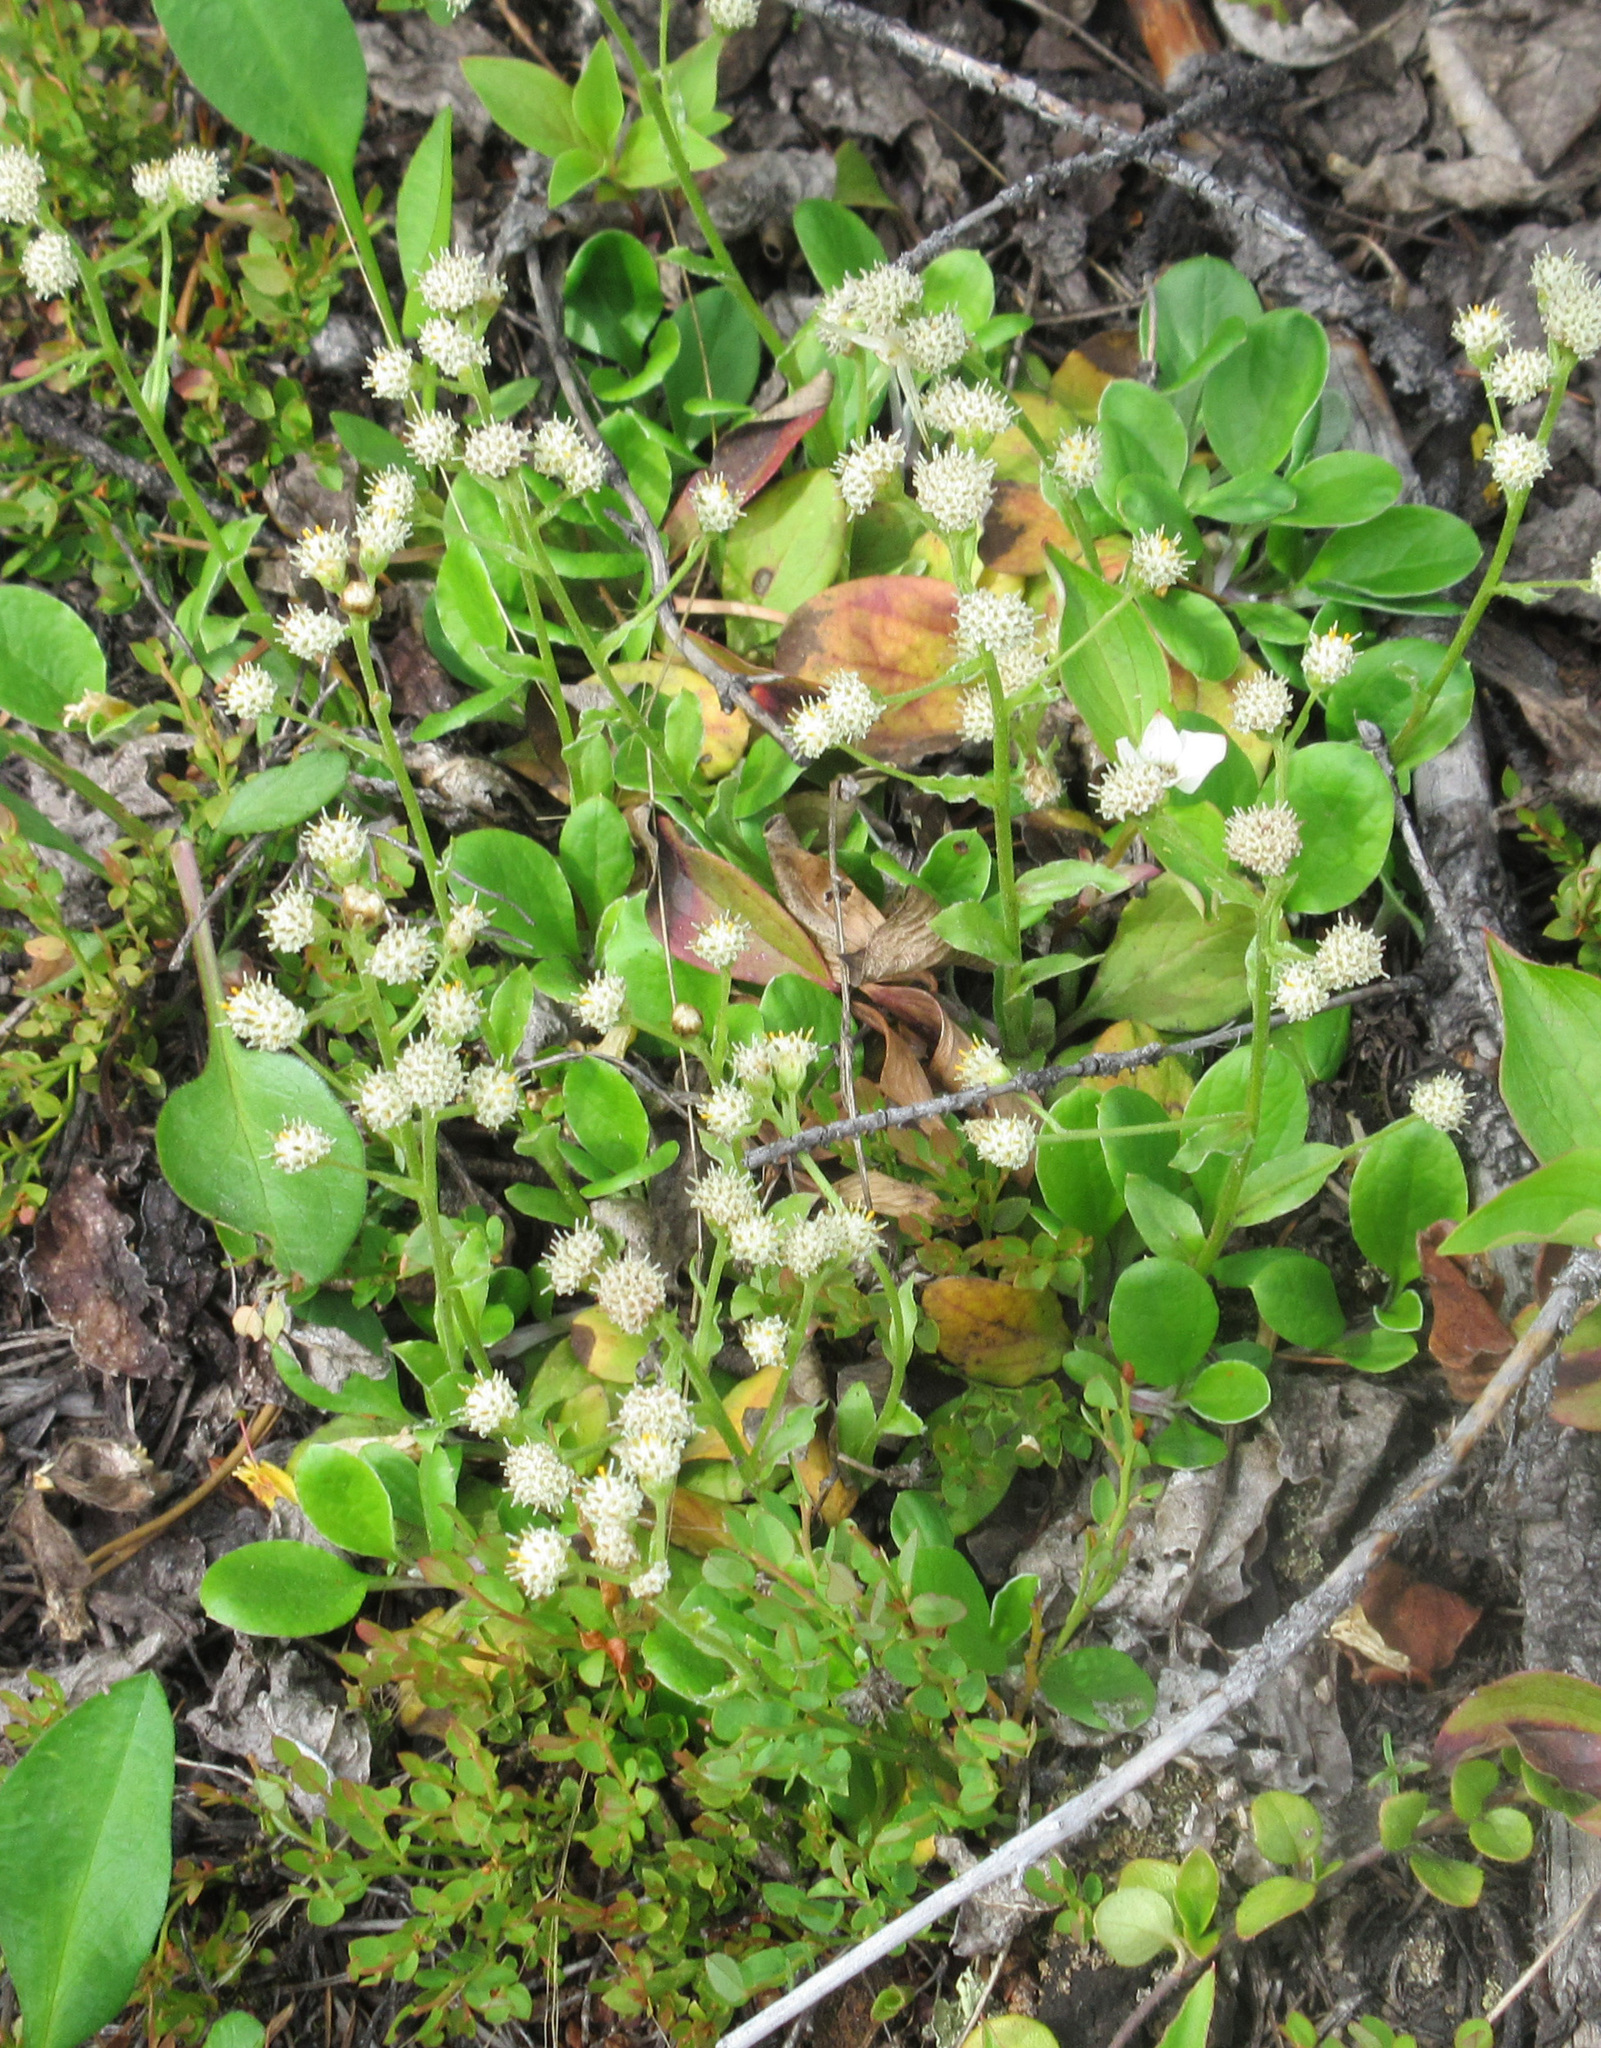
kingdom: Plantae
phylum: Tracheophyta
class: Magnoliopsida
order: Asterales
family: Asteraceae
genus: Antennaria
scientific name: Antennaria racemosa
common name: Racemose pussytoes
